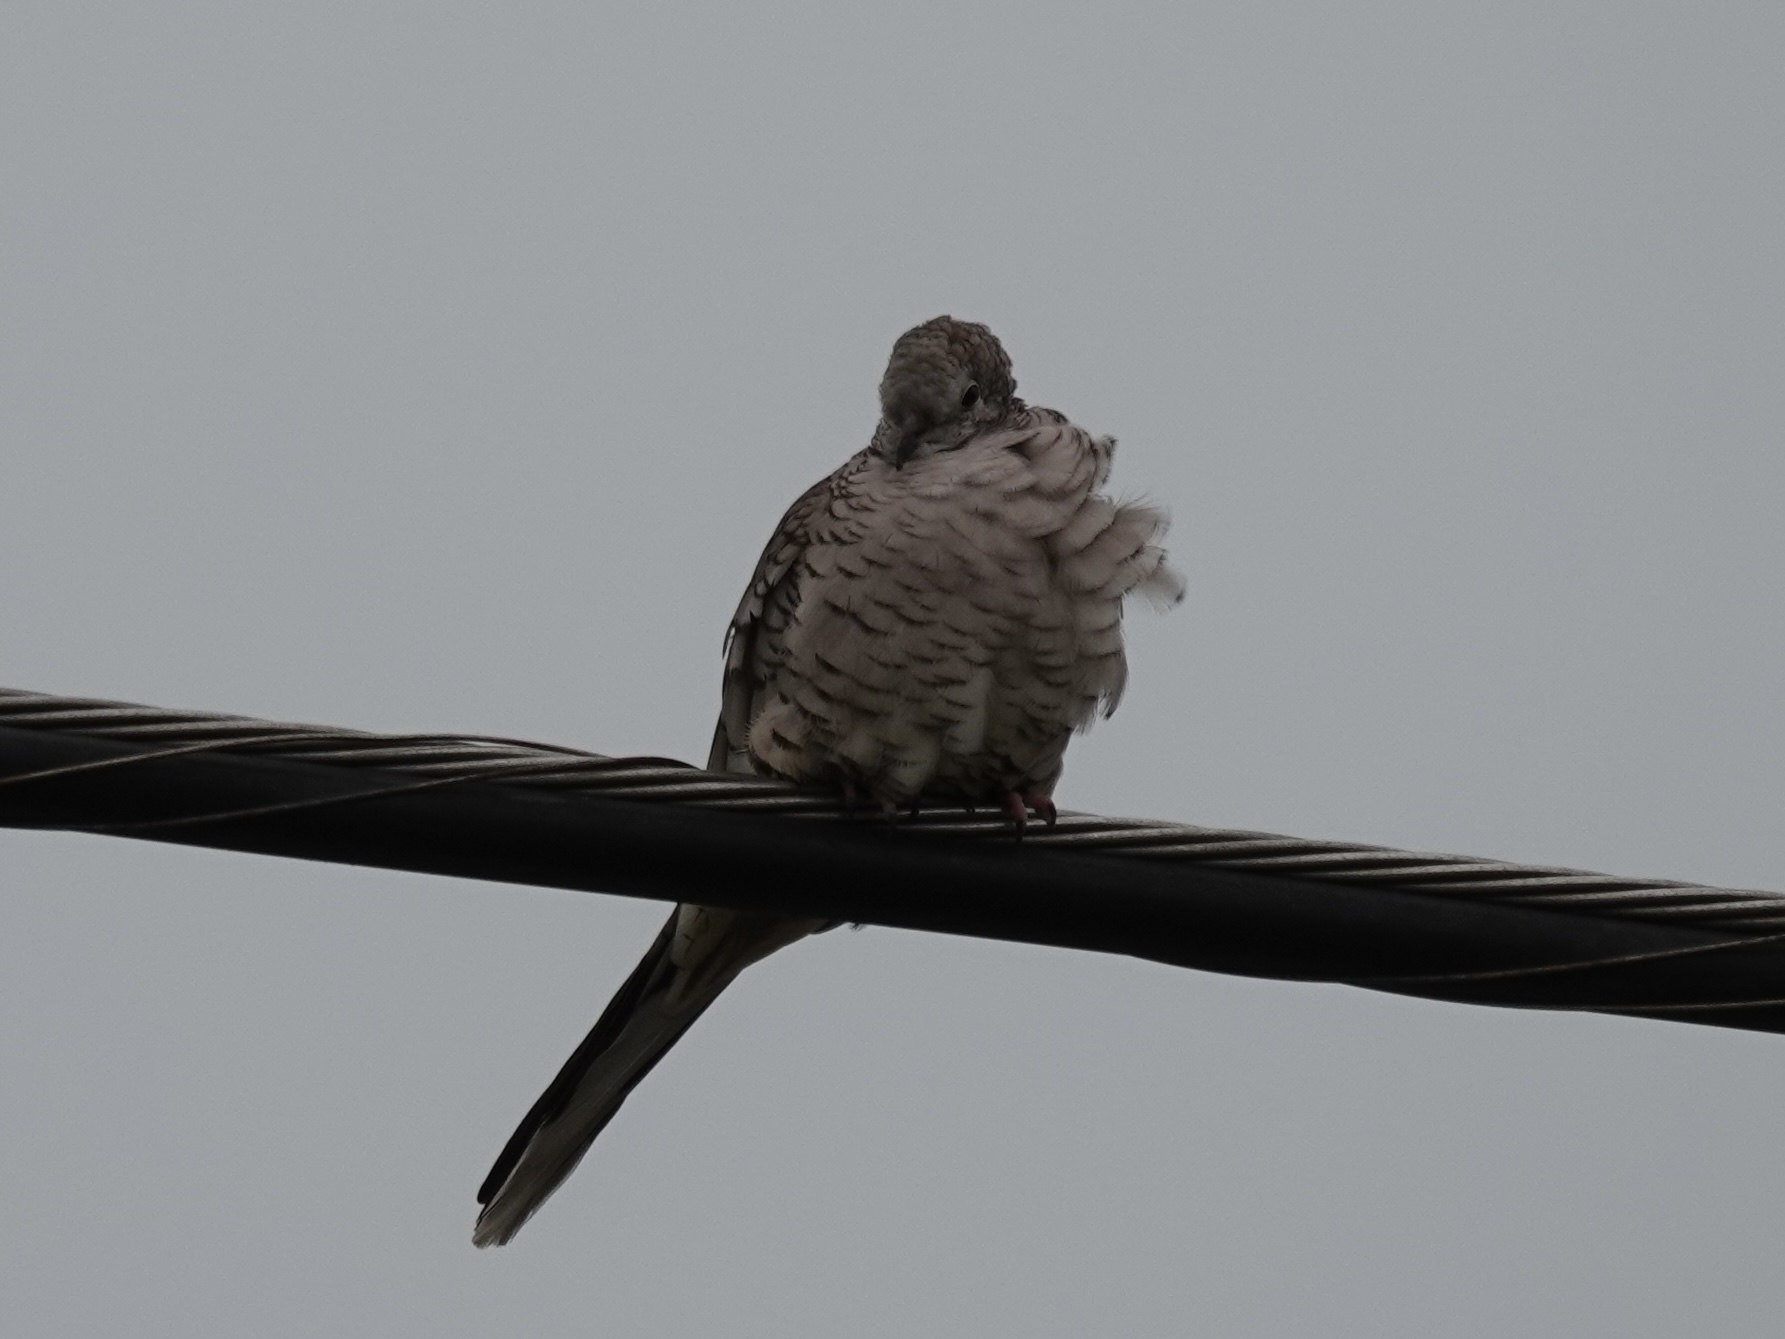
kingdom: Animalia
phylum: Chordata
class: Aves
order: Columbiformes
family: Columbidae
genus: Columbina
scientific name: Columbina inca
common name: Inca dove
